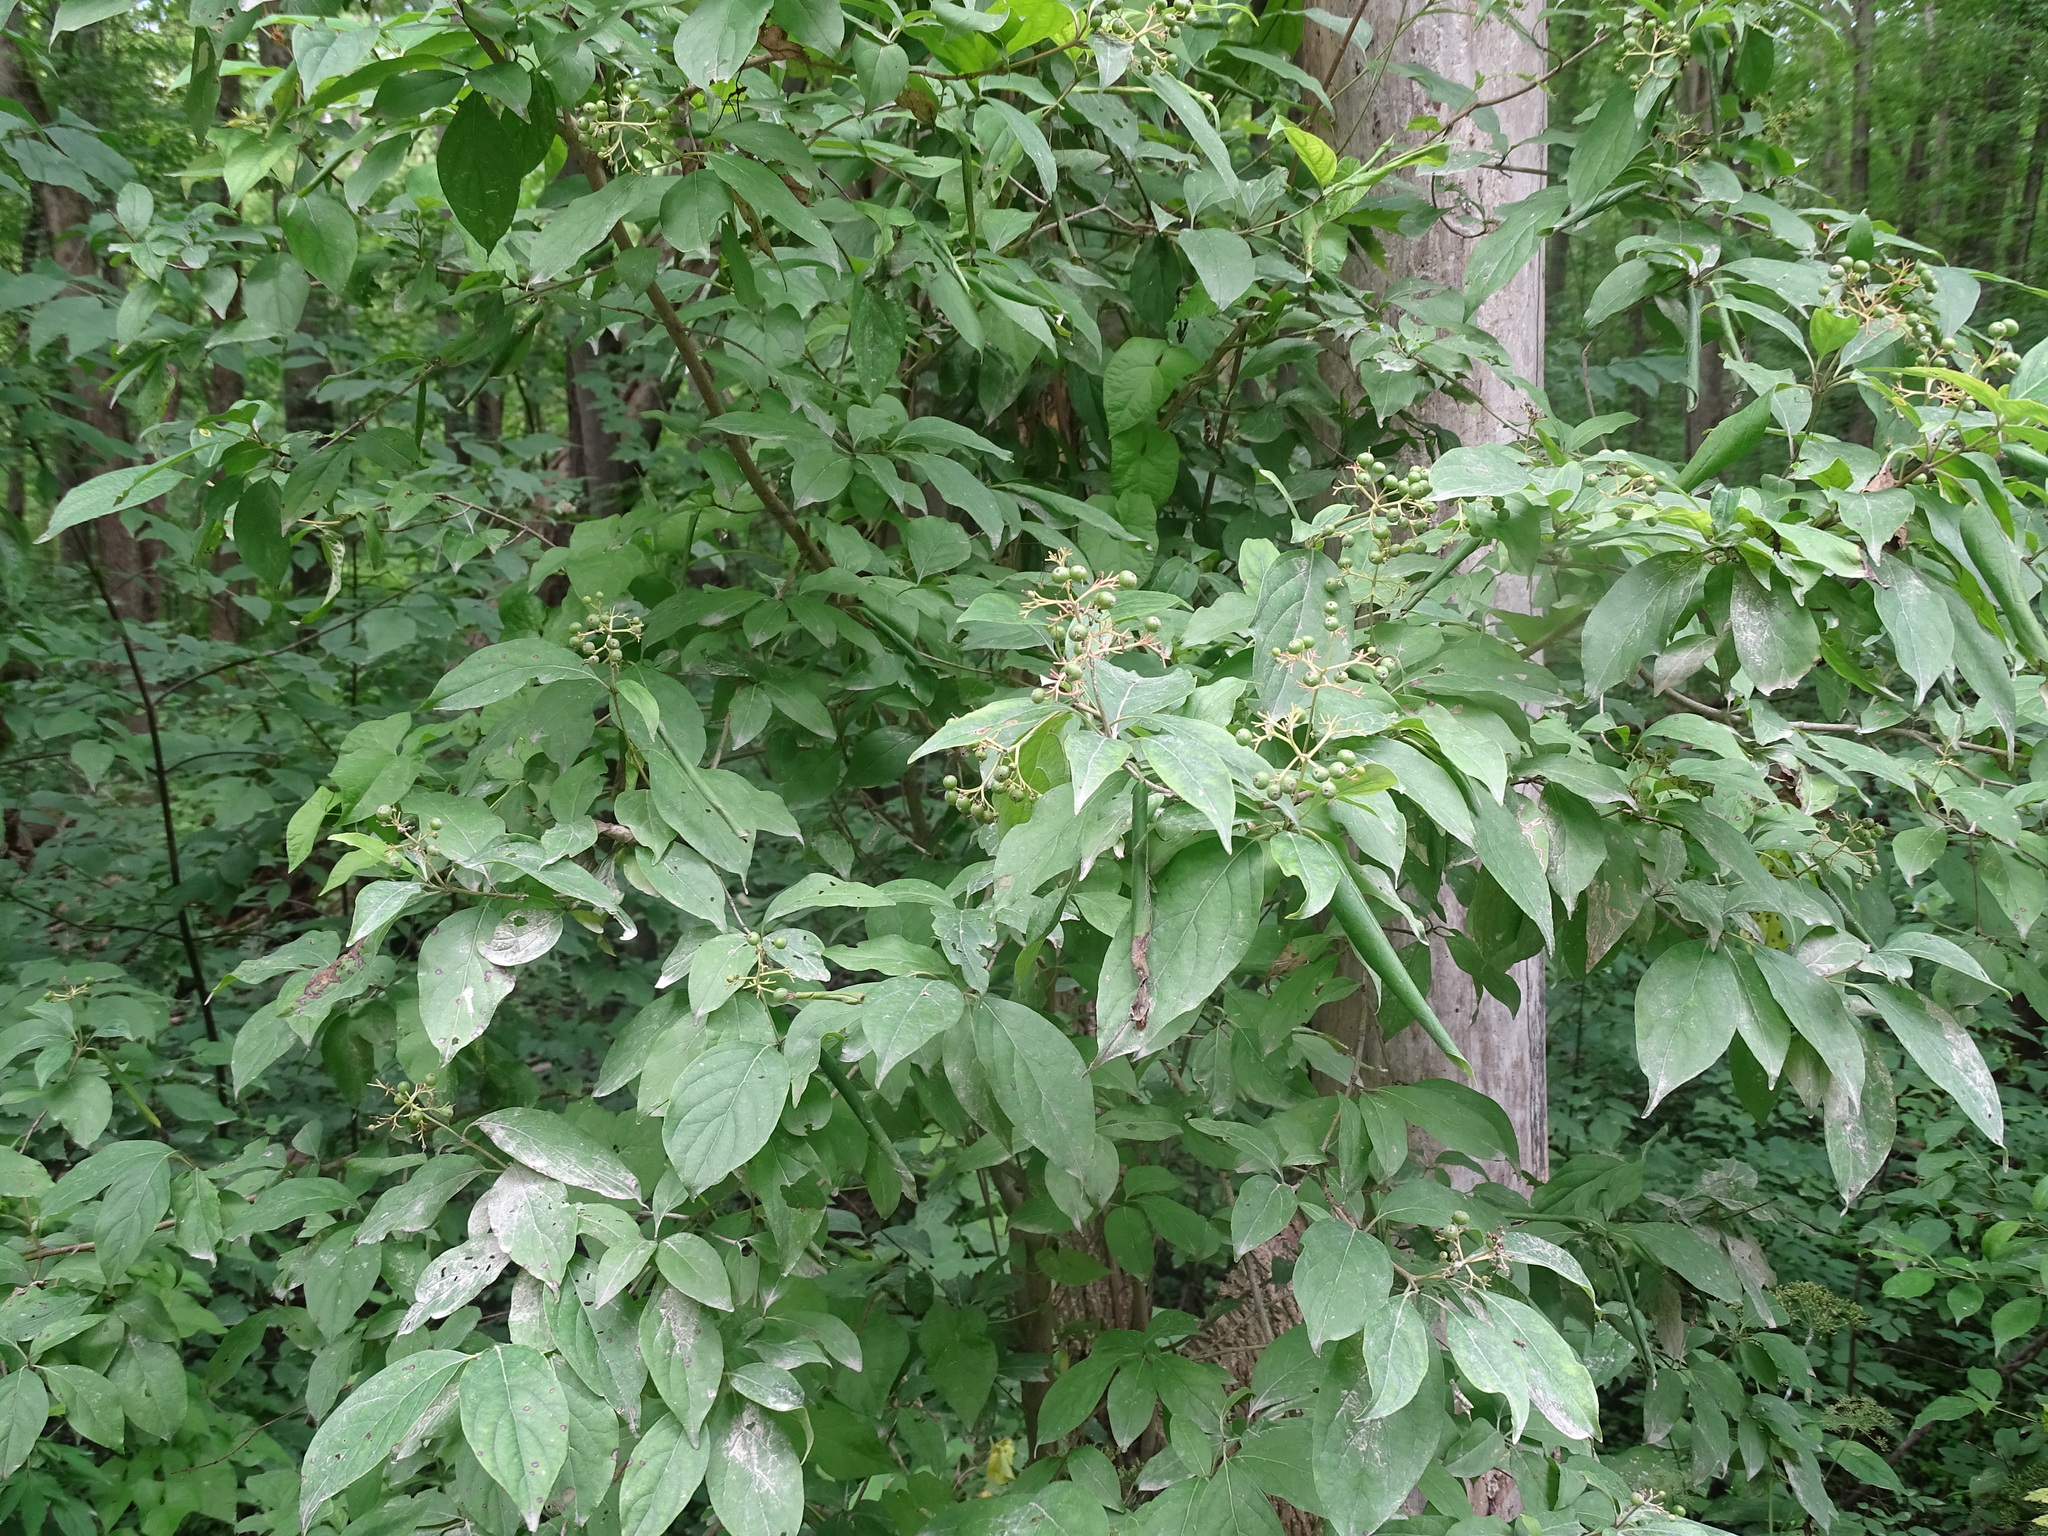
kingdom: Plantae
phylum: Tracheophyta
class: Magnoliopsida
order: Cornales
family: Cornaceae
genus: Cornus
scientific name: Cornus racemosa
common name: Panicled dogwood
